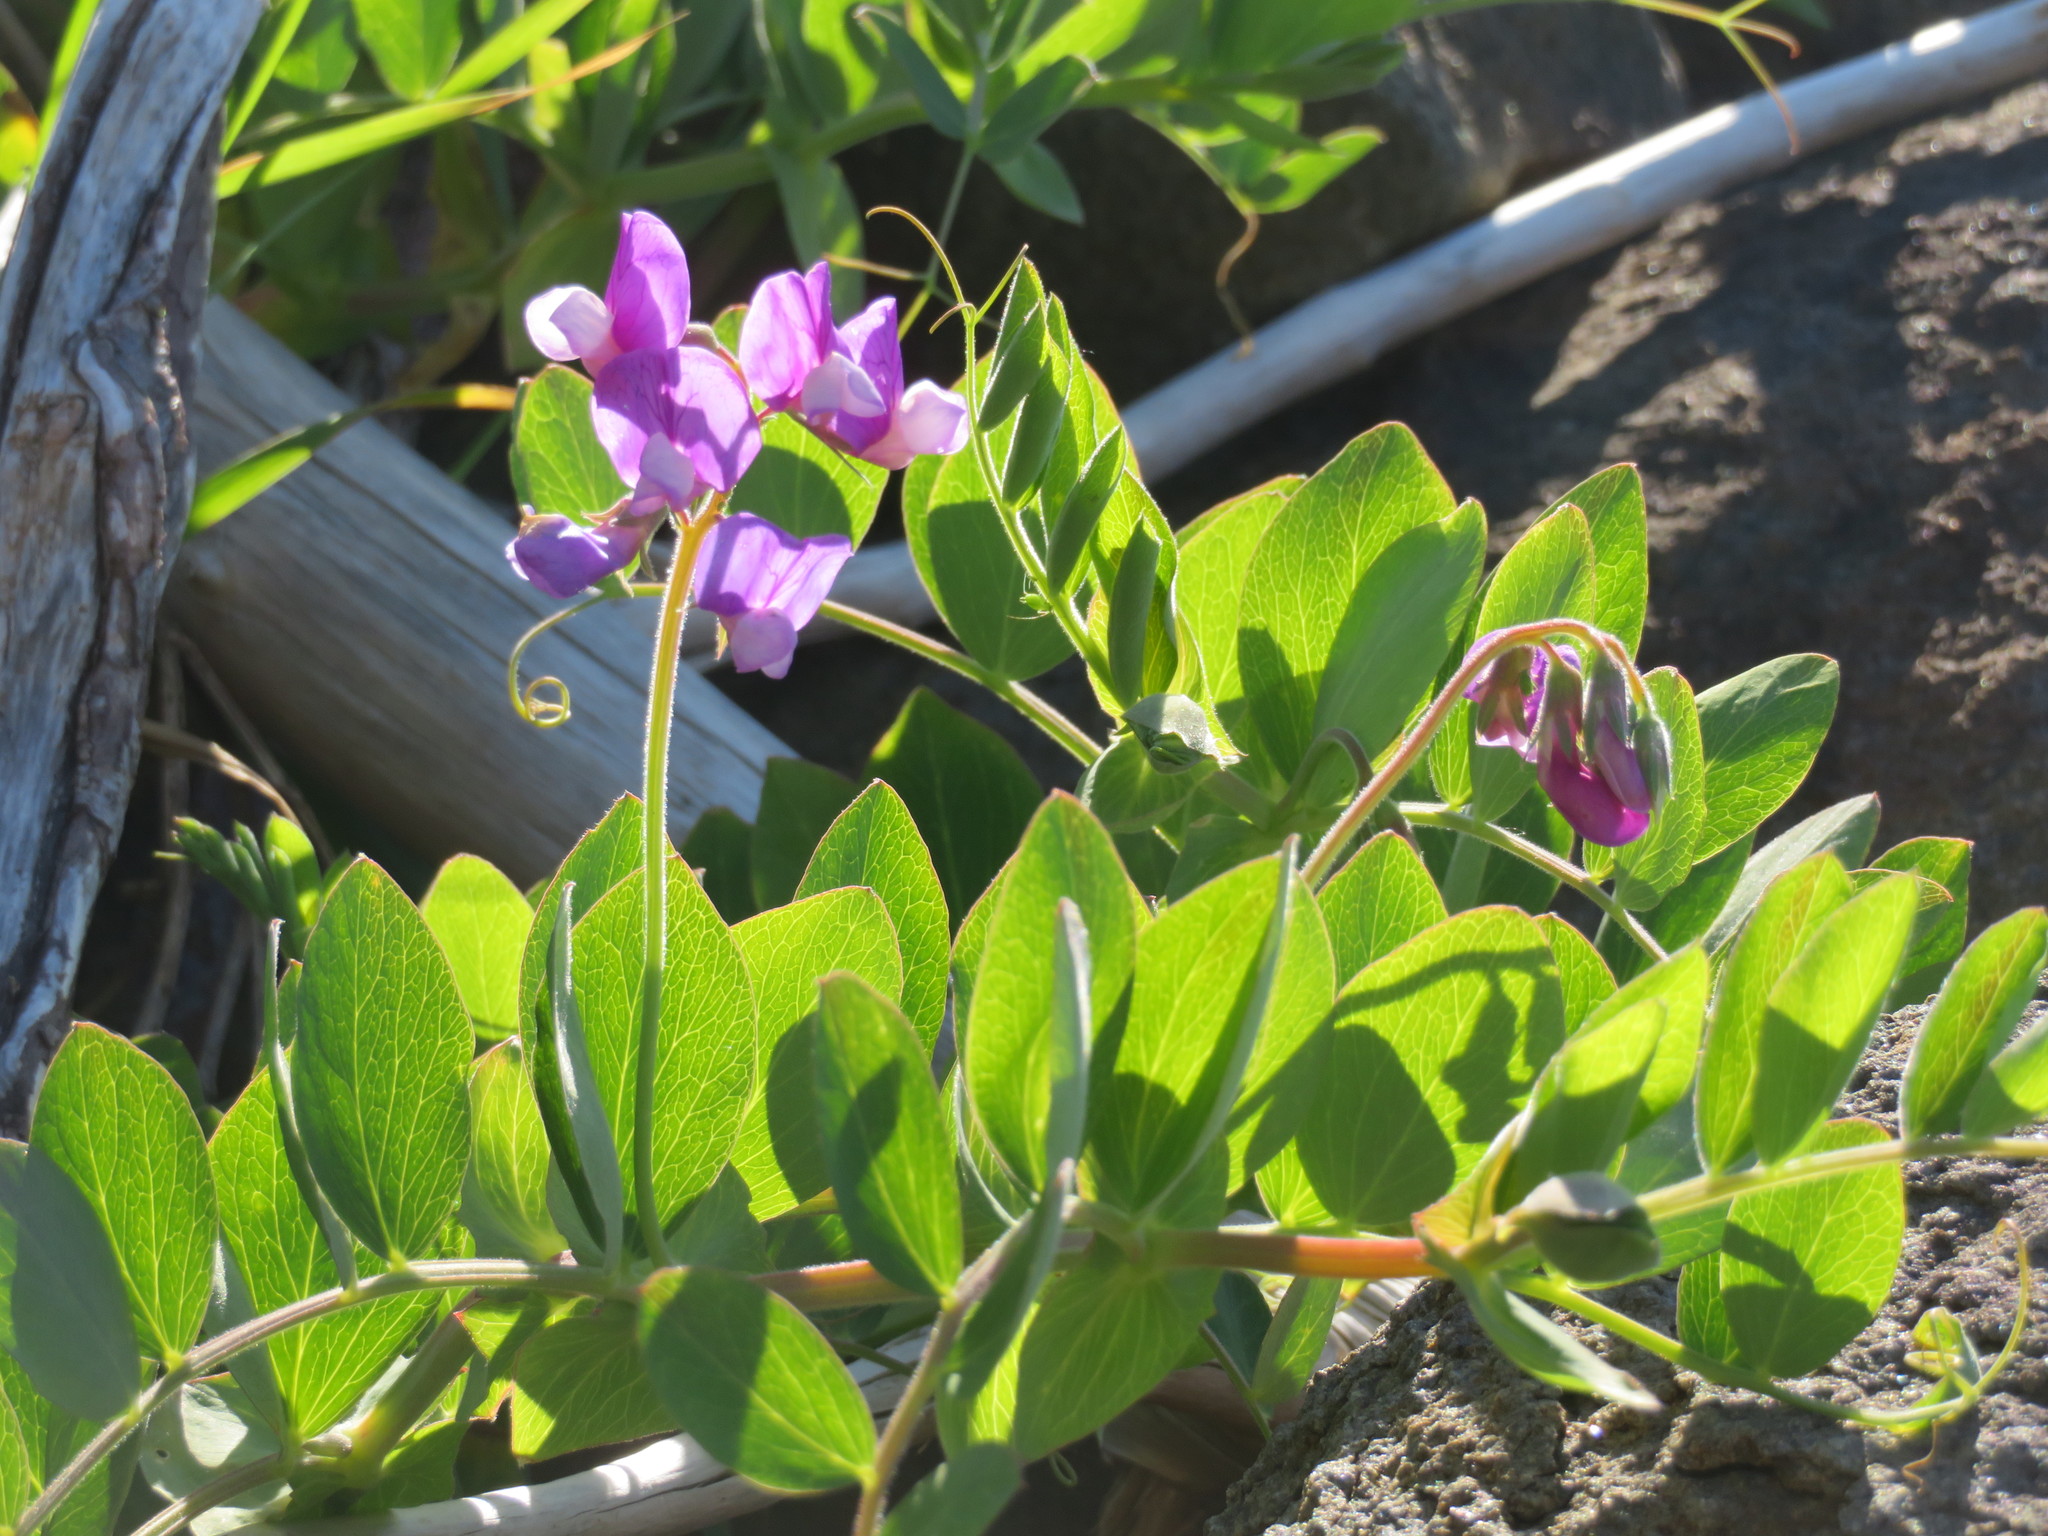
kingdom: Plantae
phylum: Tracheophyta
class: Magnoliopsida
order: Fabales
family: Fabaceae
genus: Lathyrus
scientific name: Lathyrus japonicus
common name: Sea pea
